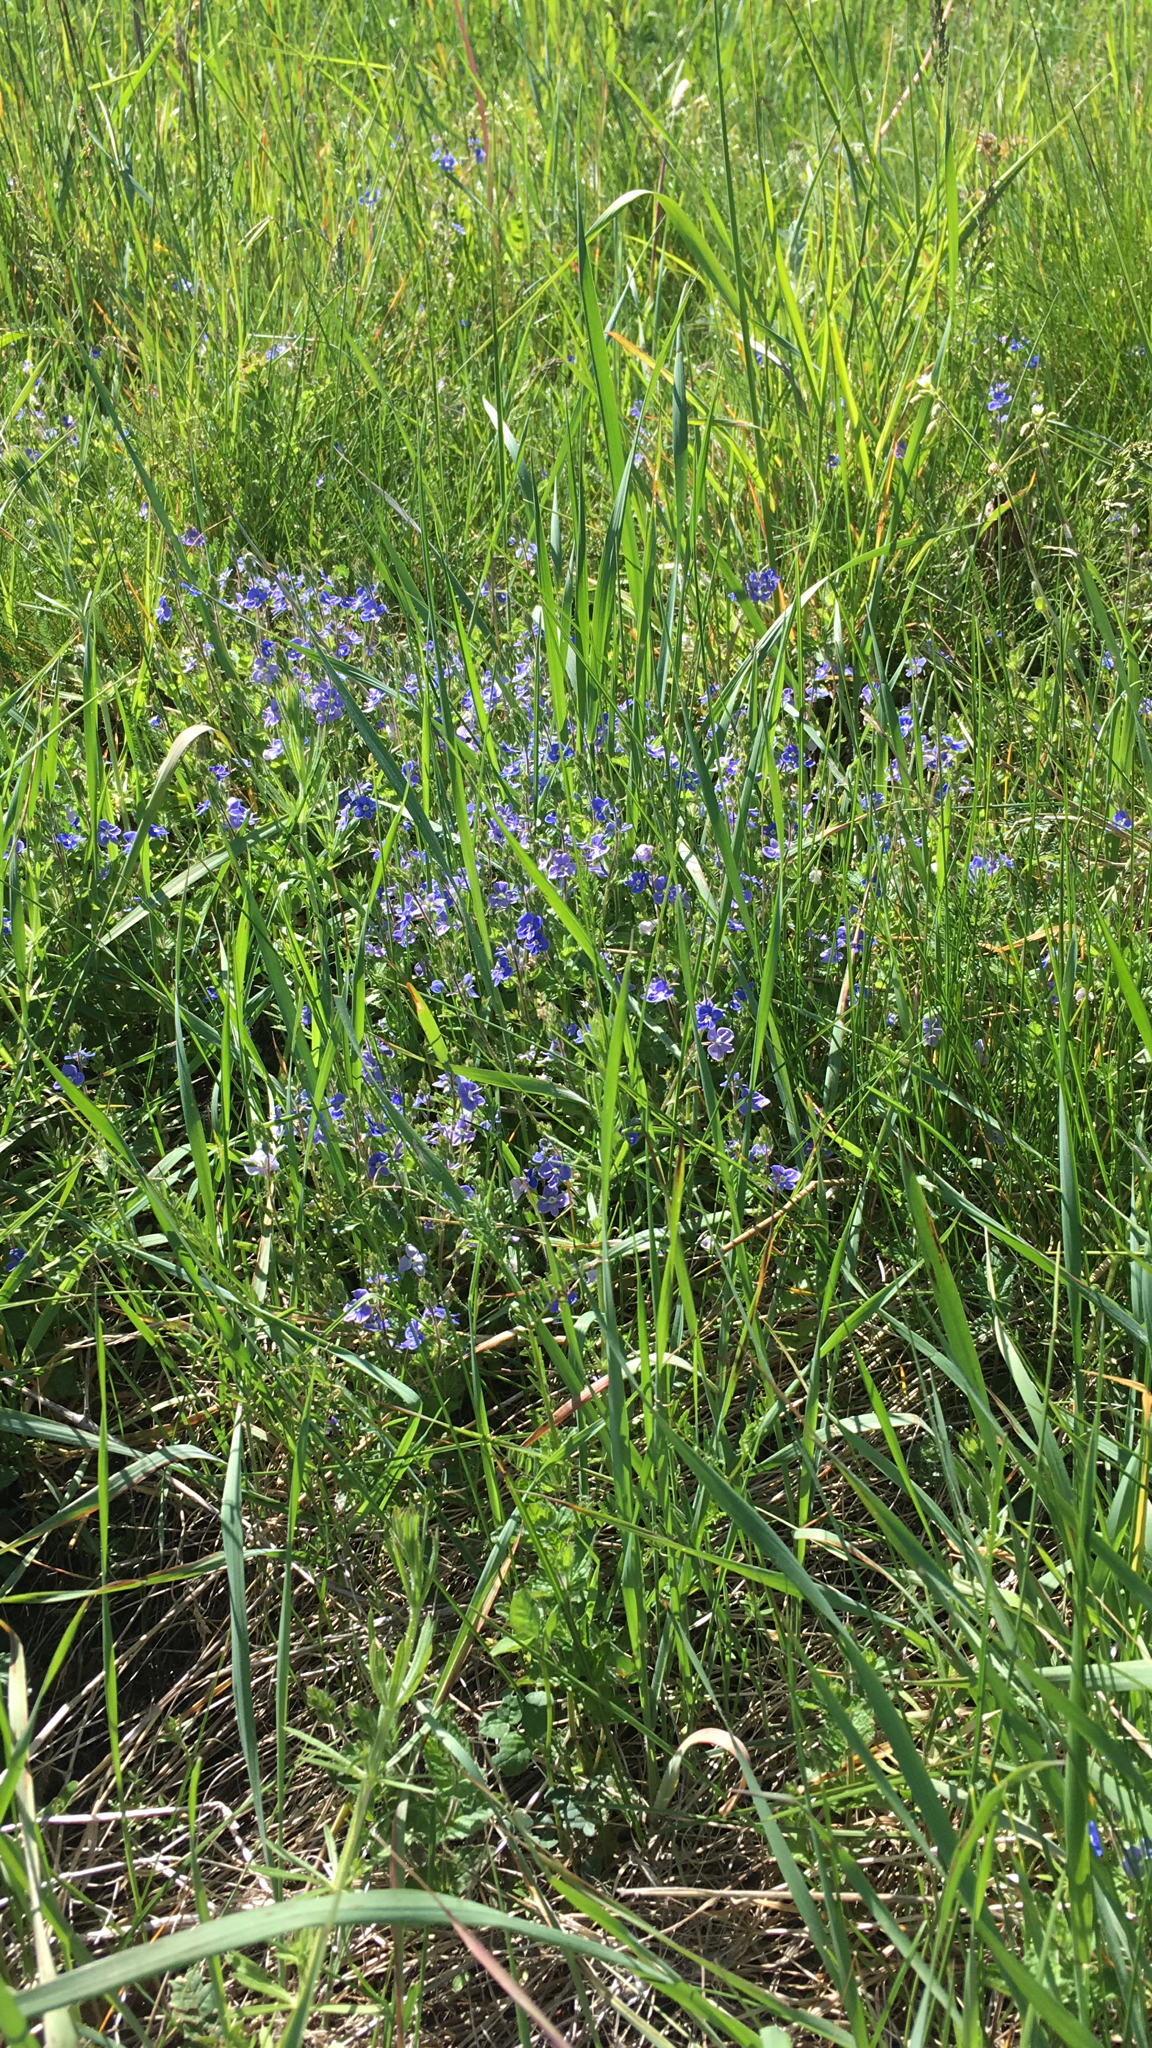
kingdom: Plantae
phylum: Tracheophyta
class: Magnoliopsida
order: Lamiales
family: Plantaginaceae
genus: Veronica
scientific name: Veronica chamaedrys
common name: Germander speedwell
